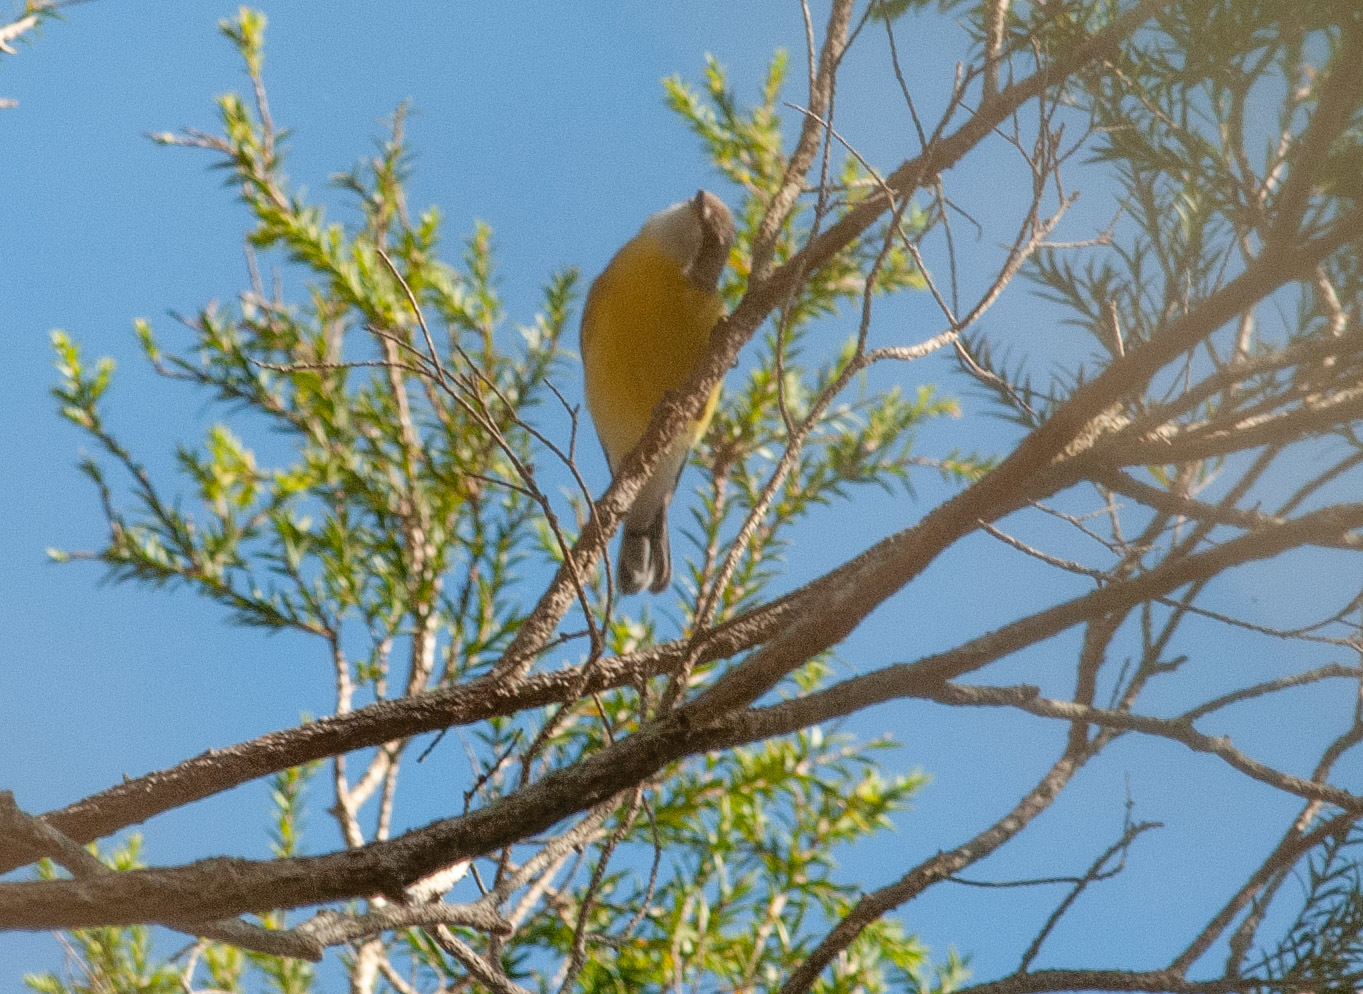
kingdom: Animalia
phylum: Chordata
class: Aves
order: Passeriformes
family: Acanthizidae
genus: Gerygone
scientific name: Gerygone olivacea
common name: White-throated gerygone
